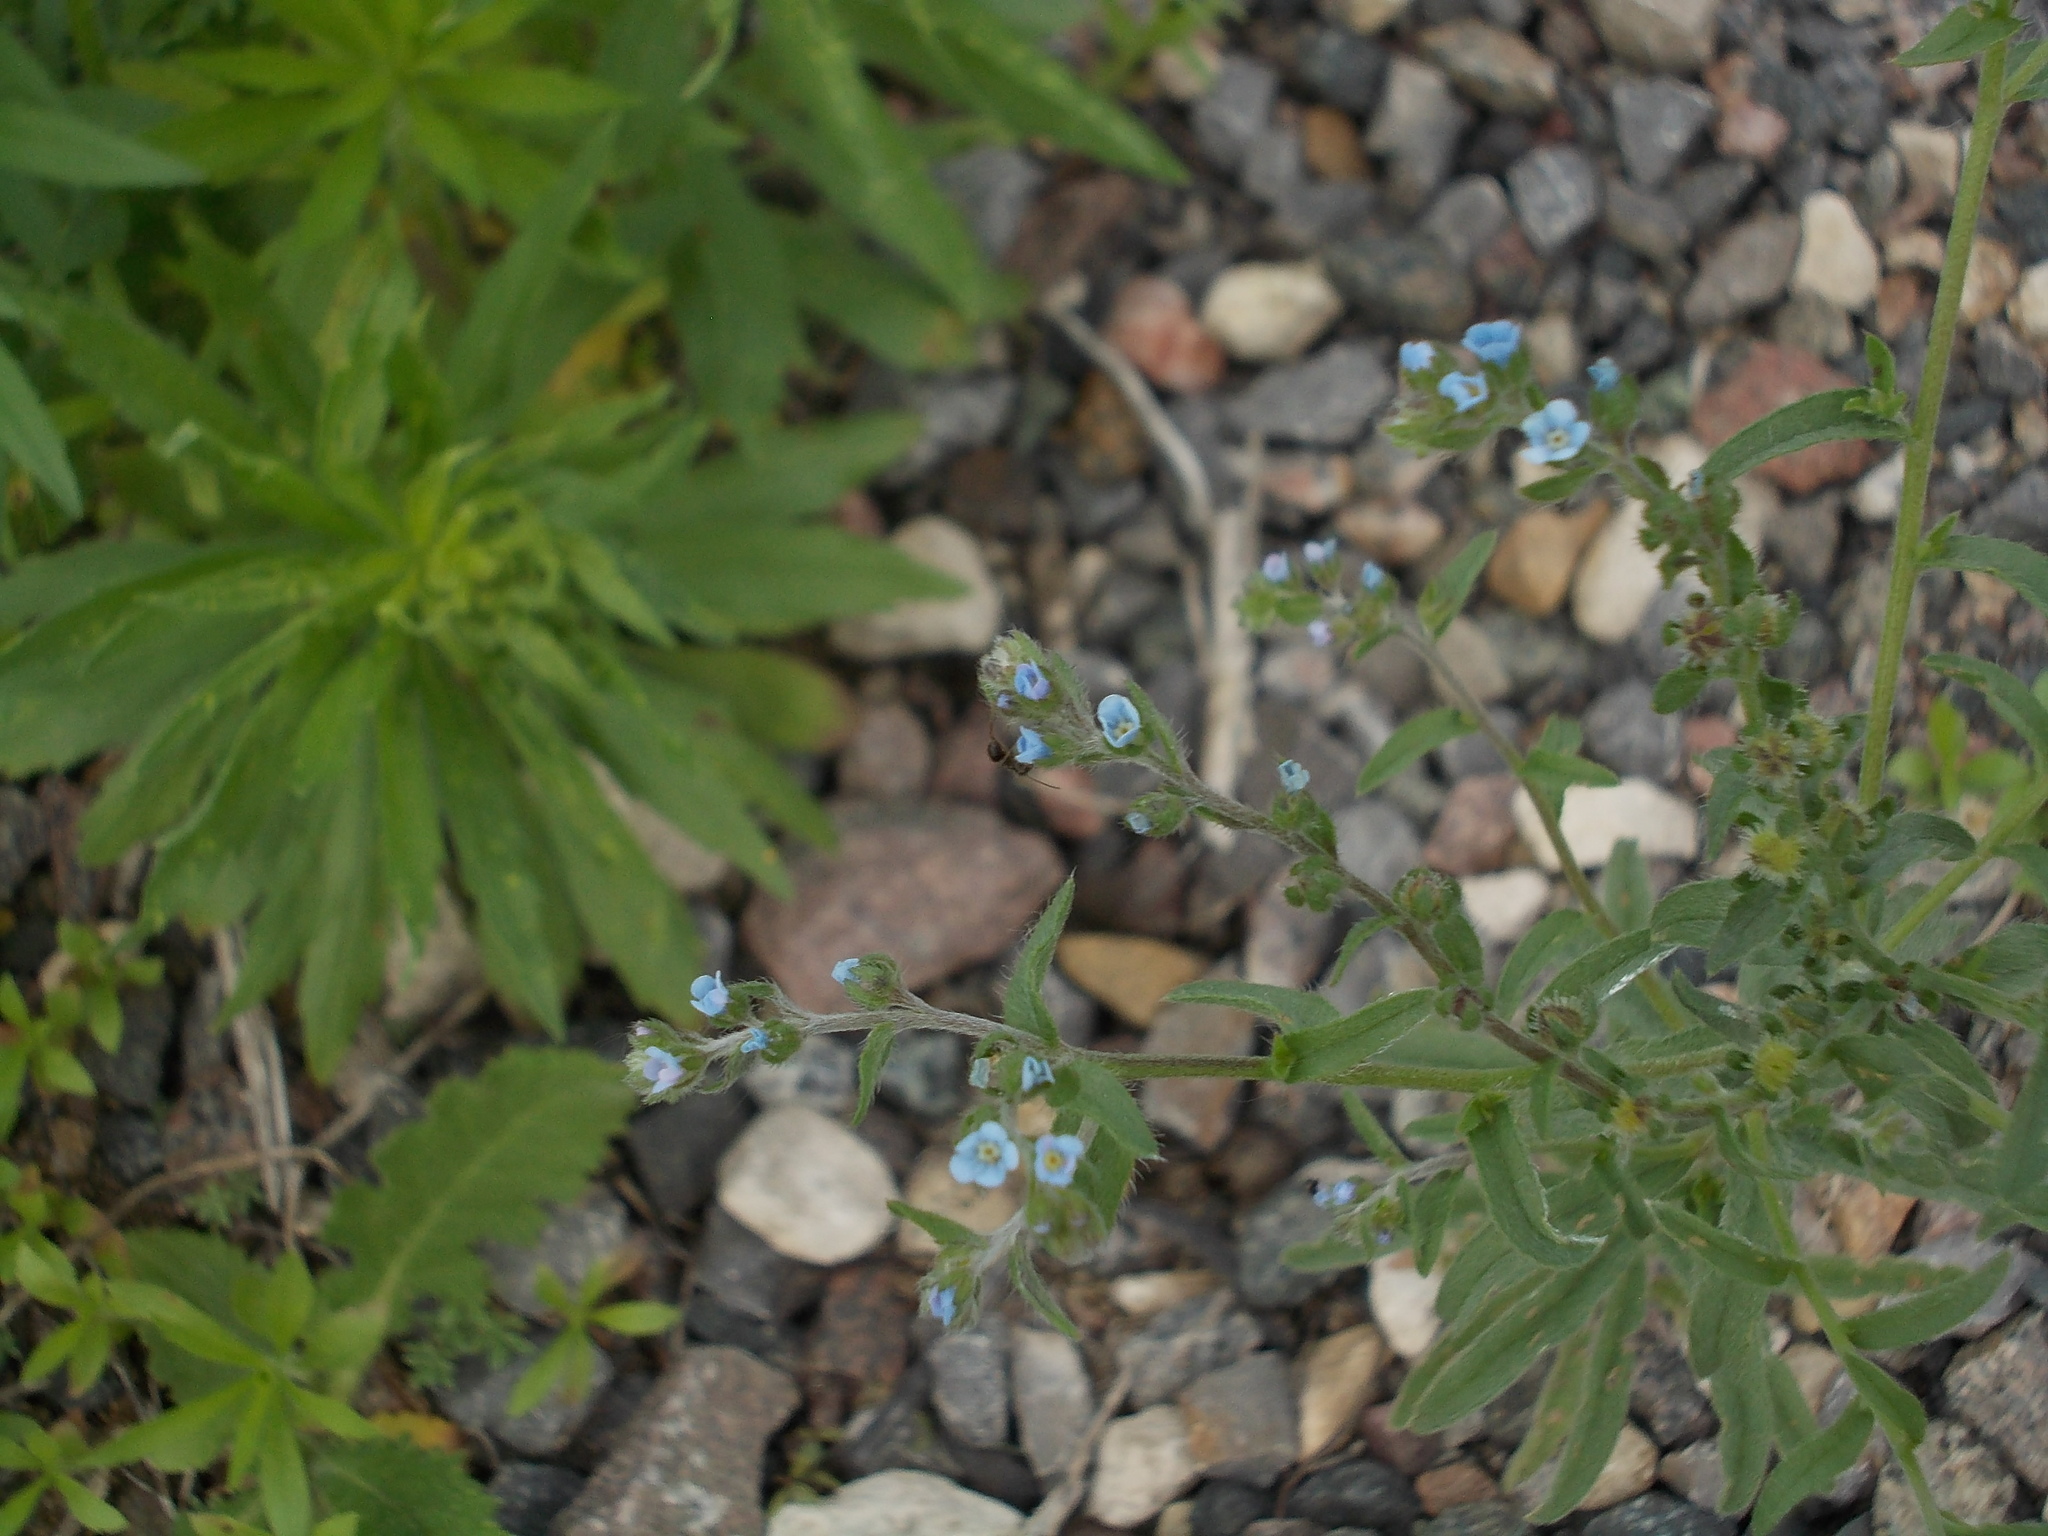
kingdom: Plantae
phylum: Tracheophyta
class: Magnoliopsida
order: Boraginales
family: Boraginaceae
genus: Lappula
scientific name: Lappula squarrosa
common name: European stickseed
